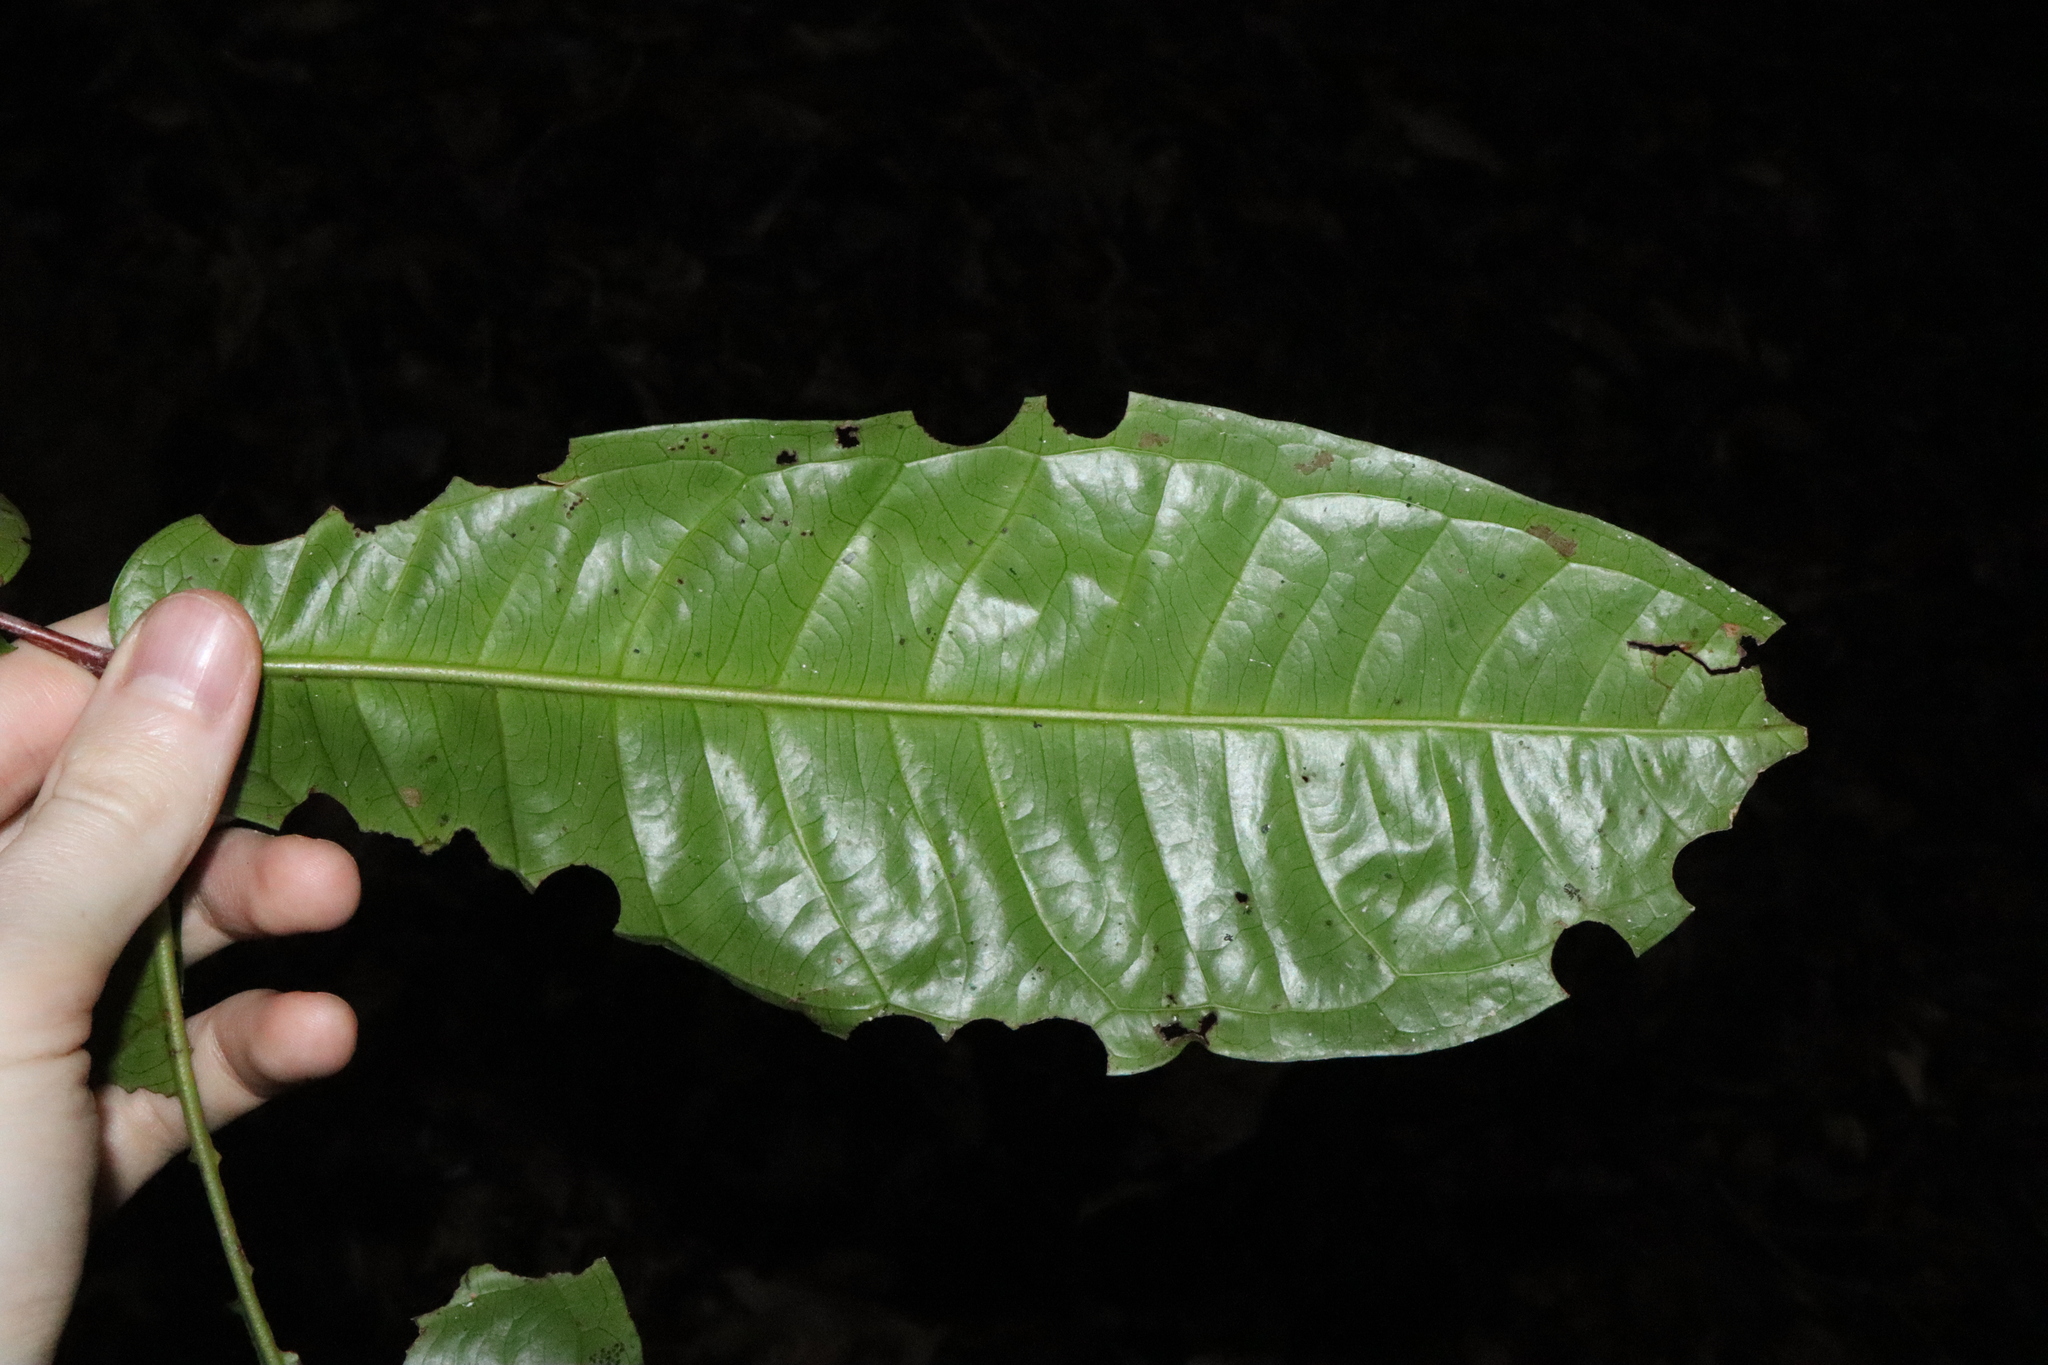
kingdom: Plantae
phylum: Tracheophyta
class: Magnoliopsida
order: Myrtales
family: Myrtaceae
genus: Syzygium
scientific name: Syzygium monospermum
